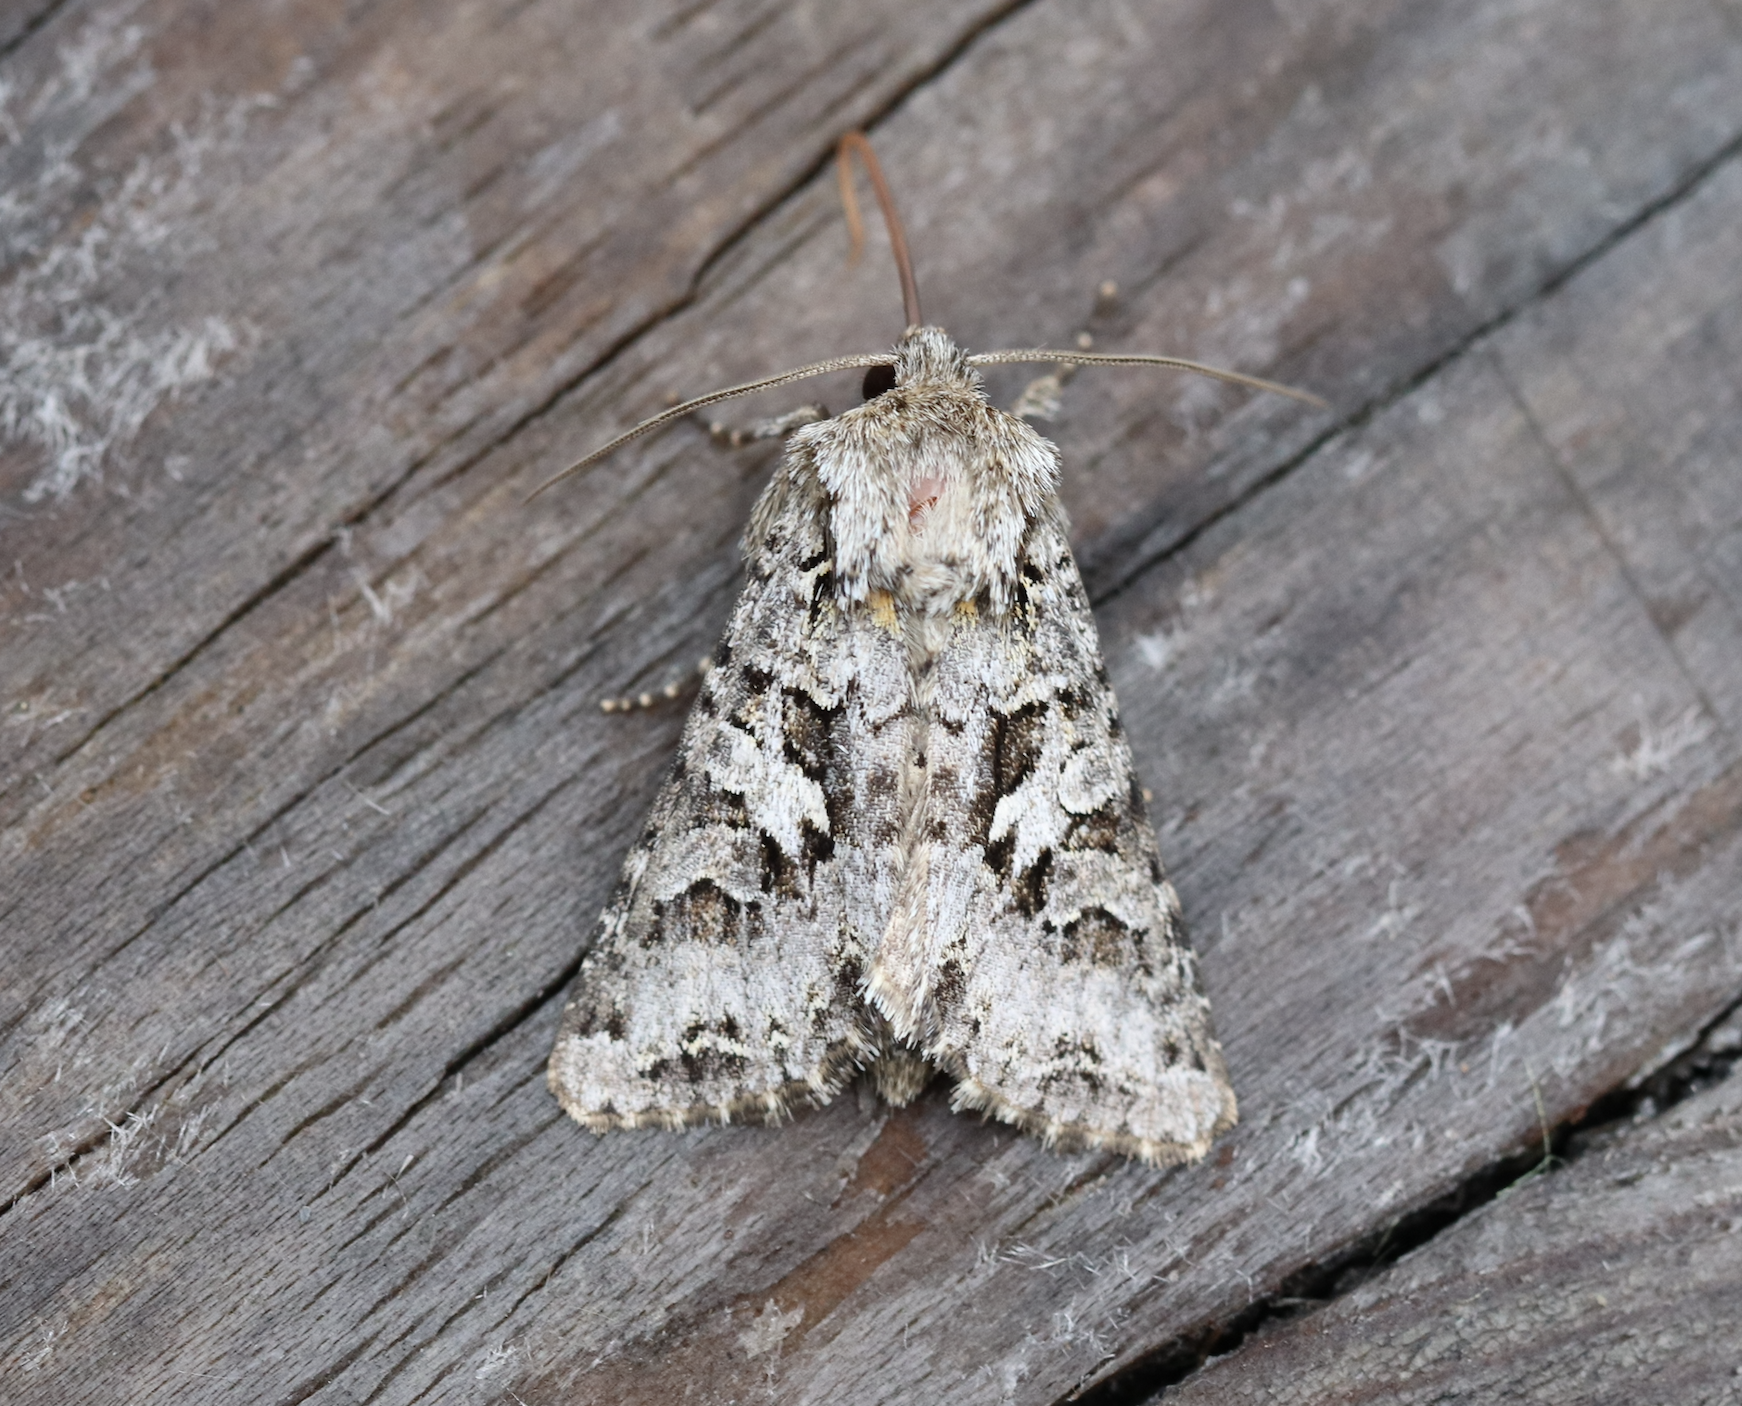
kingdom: Animalia
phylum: Arthropoda
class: Insecta
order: Lepidoptera
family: Noctuidae
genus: Hada
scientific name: Hada plebeja
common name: Shears
